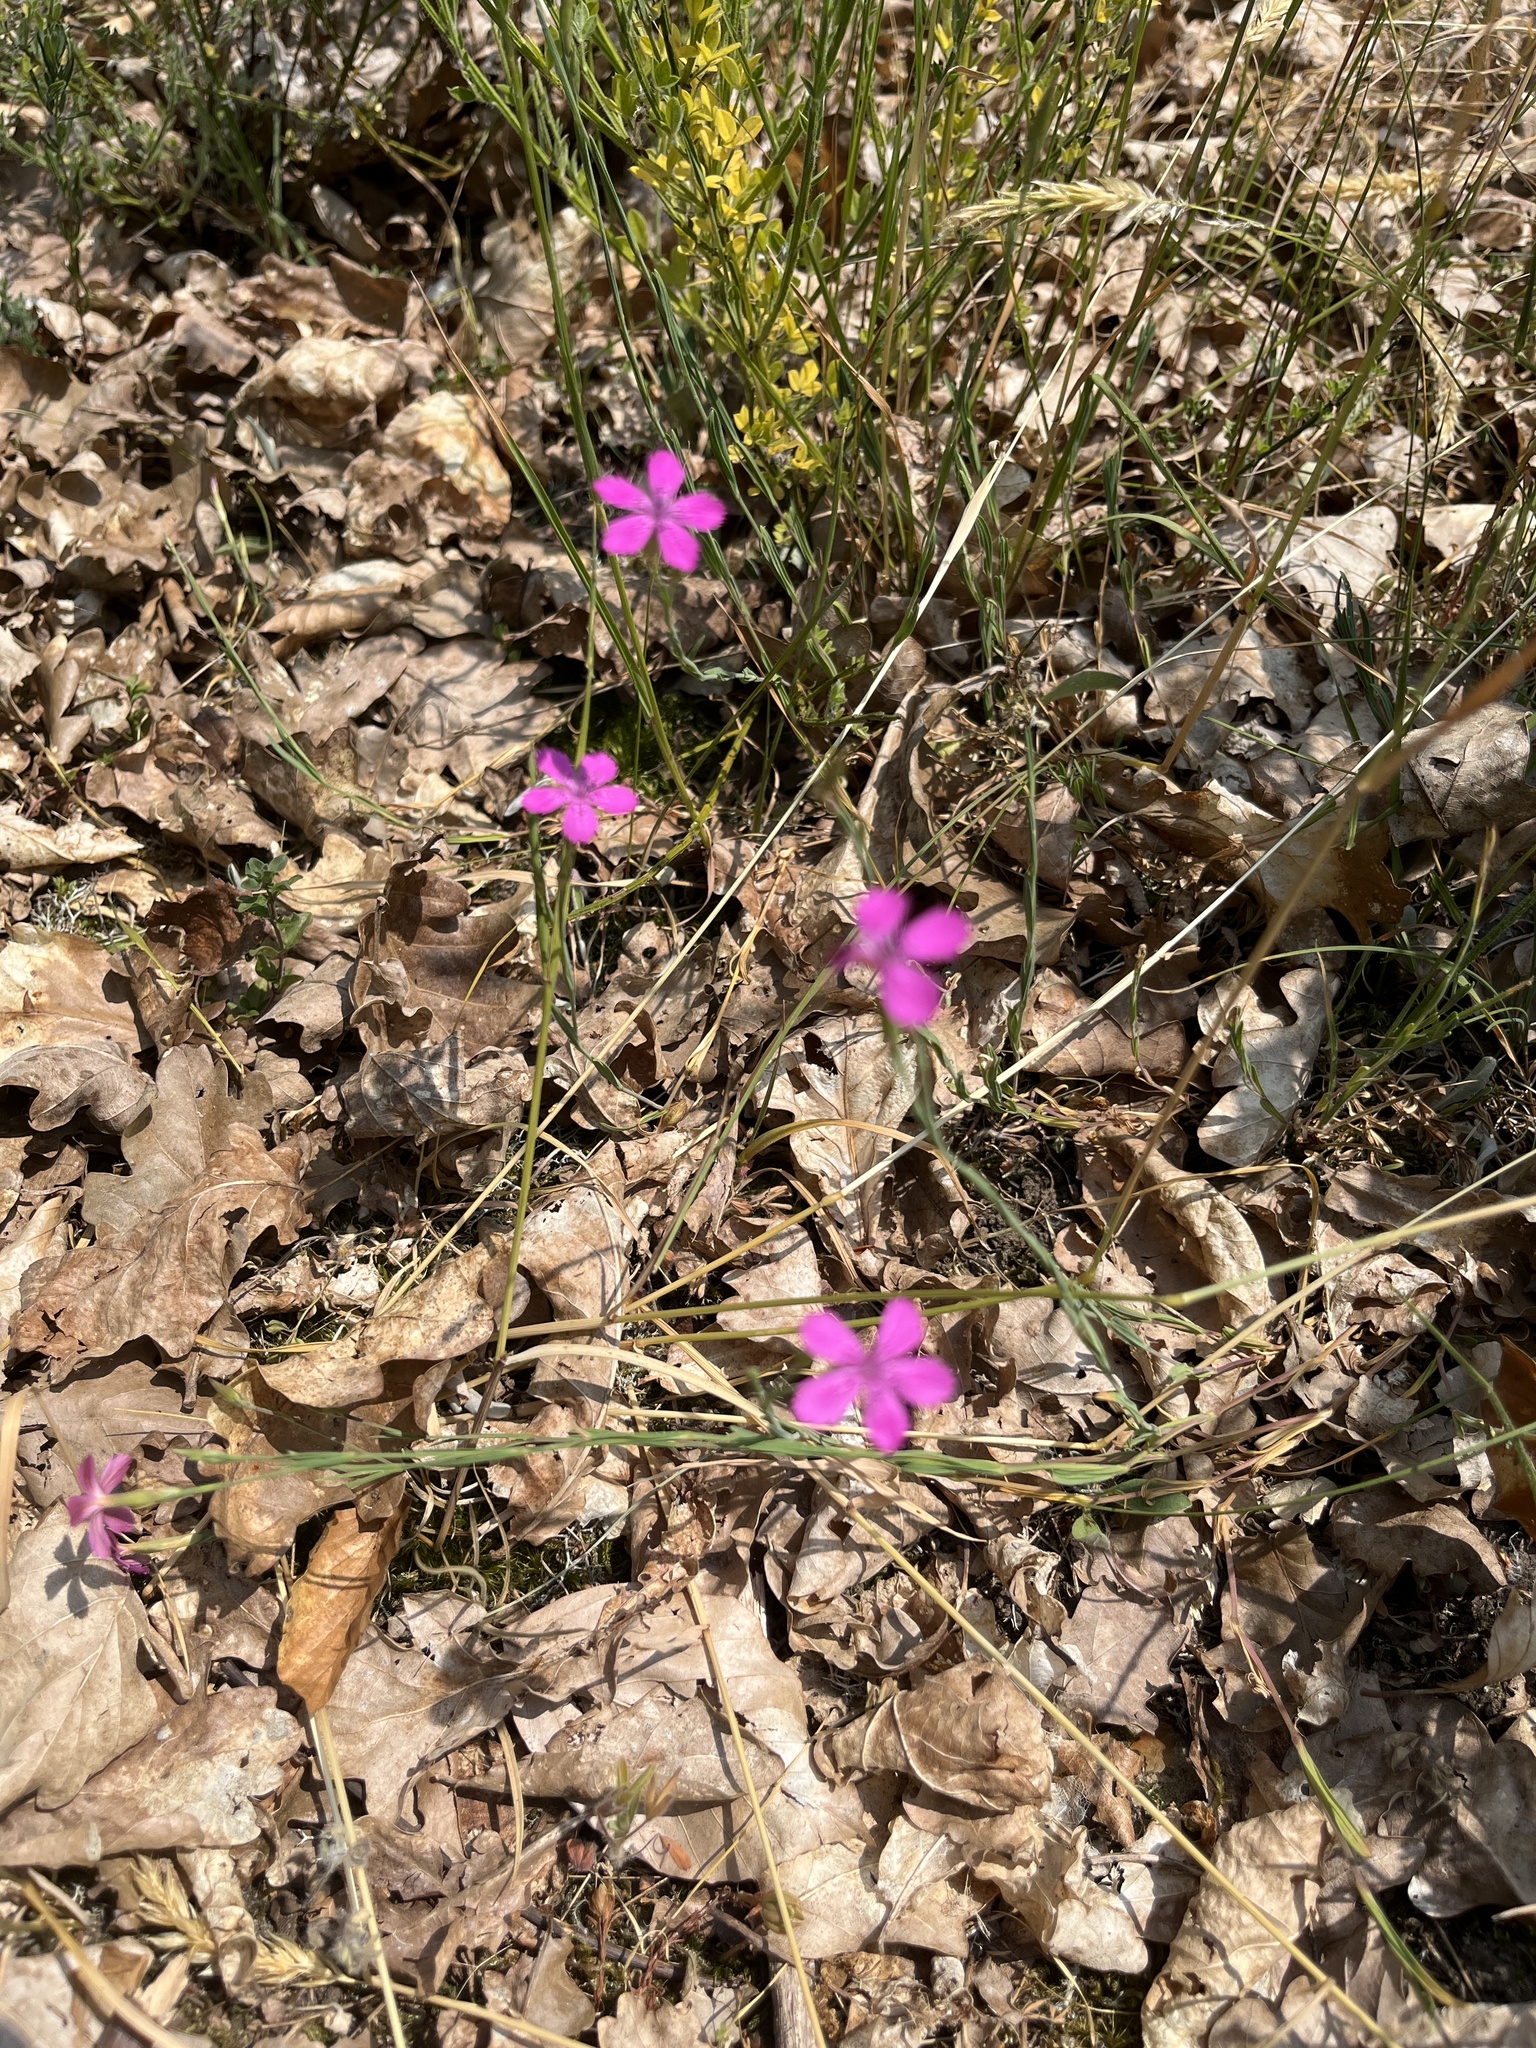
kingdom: Plantae
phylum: Tracheophyta
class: Magnoliopsida
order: Caryophyllales
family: Caryophyllaceae
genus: Dianthus
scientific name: Dianthus deltoides
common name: Maiden pink
